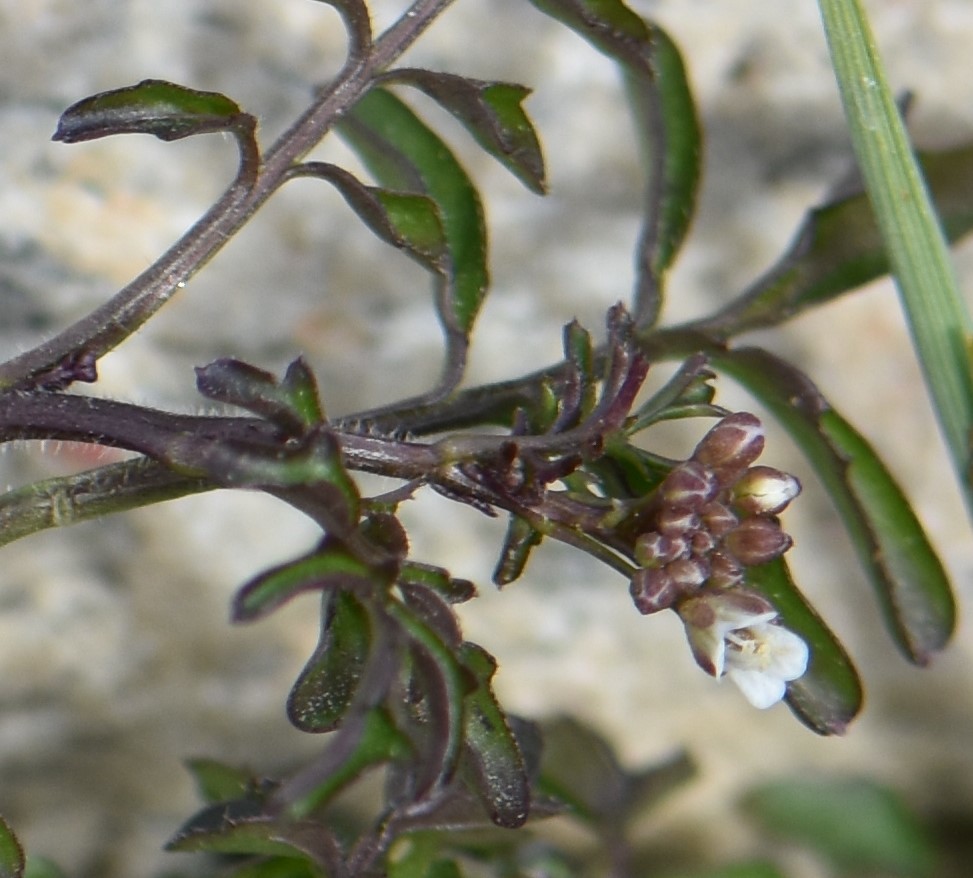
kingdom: Plantae
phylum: Tracheophyta
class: Magnoliopsida
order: Brassicales
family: Brassicaceae
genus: Cardamine
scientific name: Cardamine pensylvanica
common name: Pennsylvania bittercress
